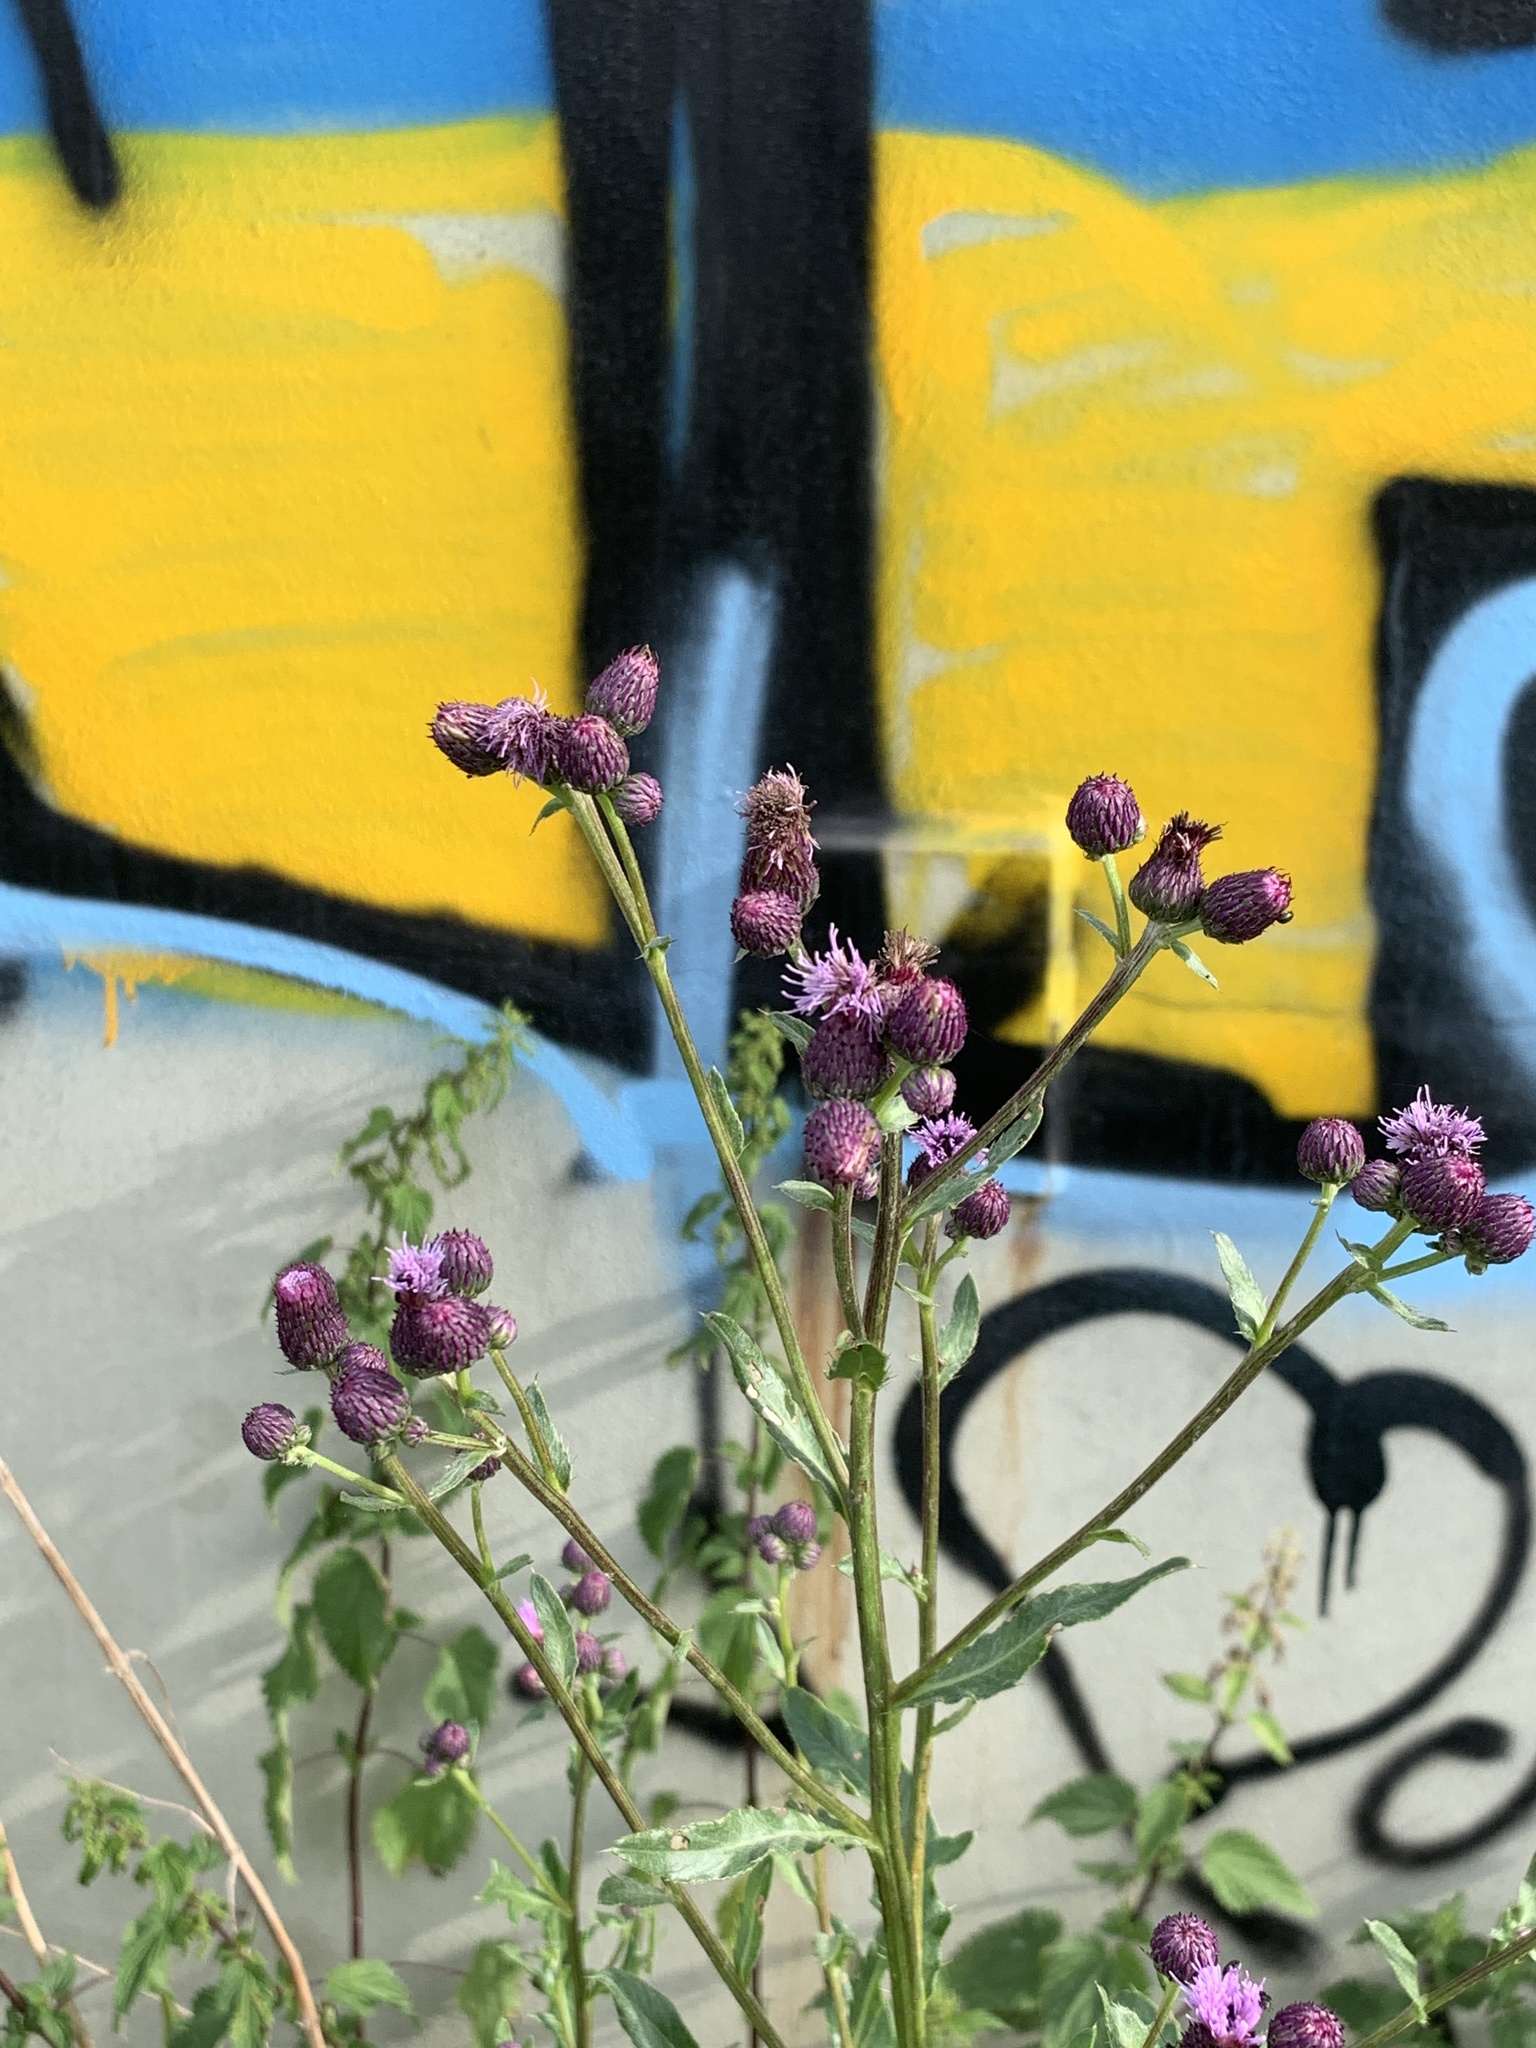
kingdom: Plantae
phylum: Tracheophyta
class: Magnoliopsida
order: Asterales
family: Asteraceae
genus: Cirsium
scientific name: Cirsium arvense
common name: Creeping thistle
